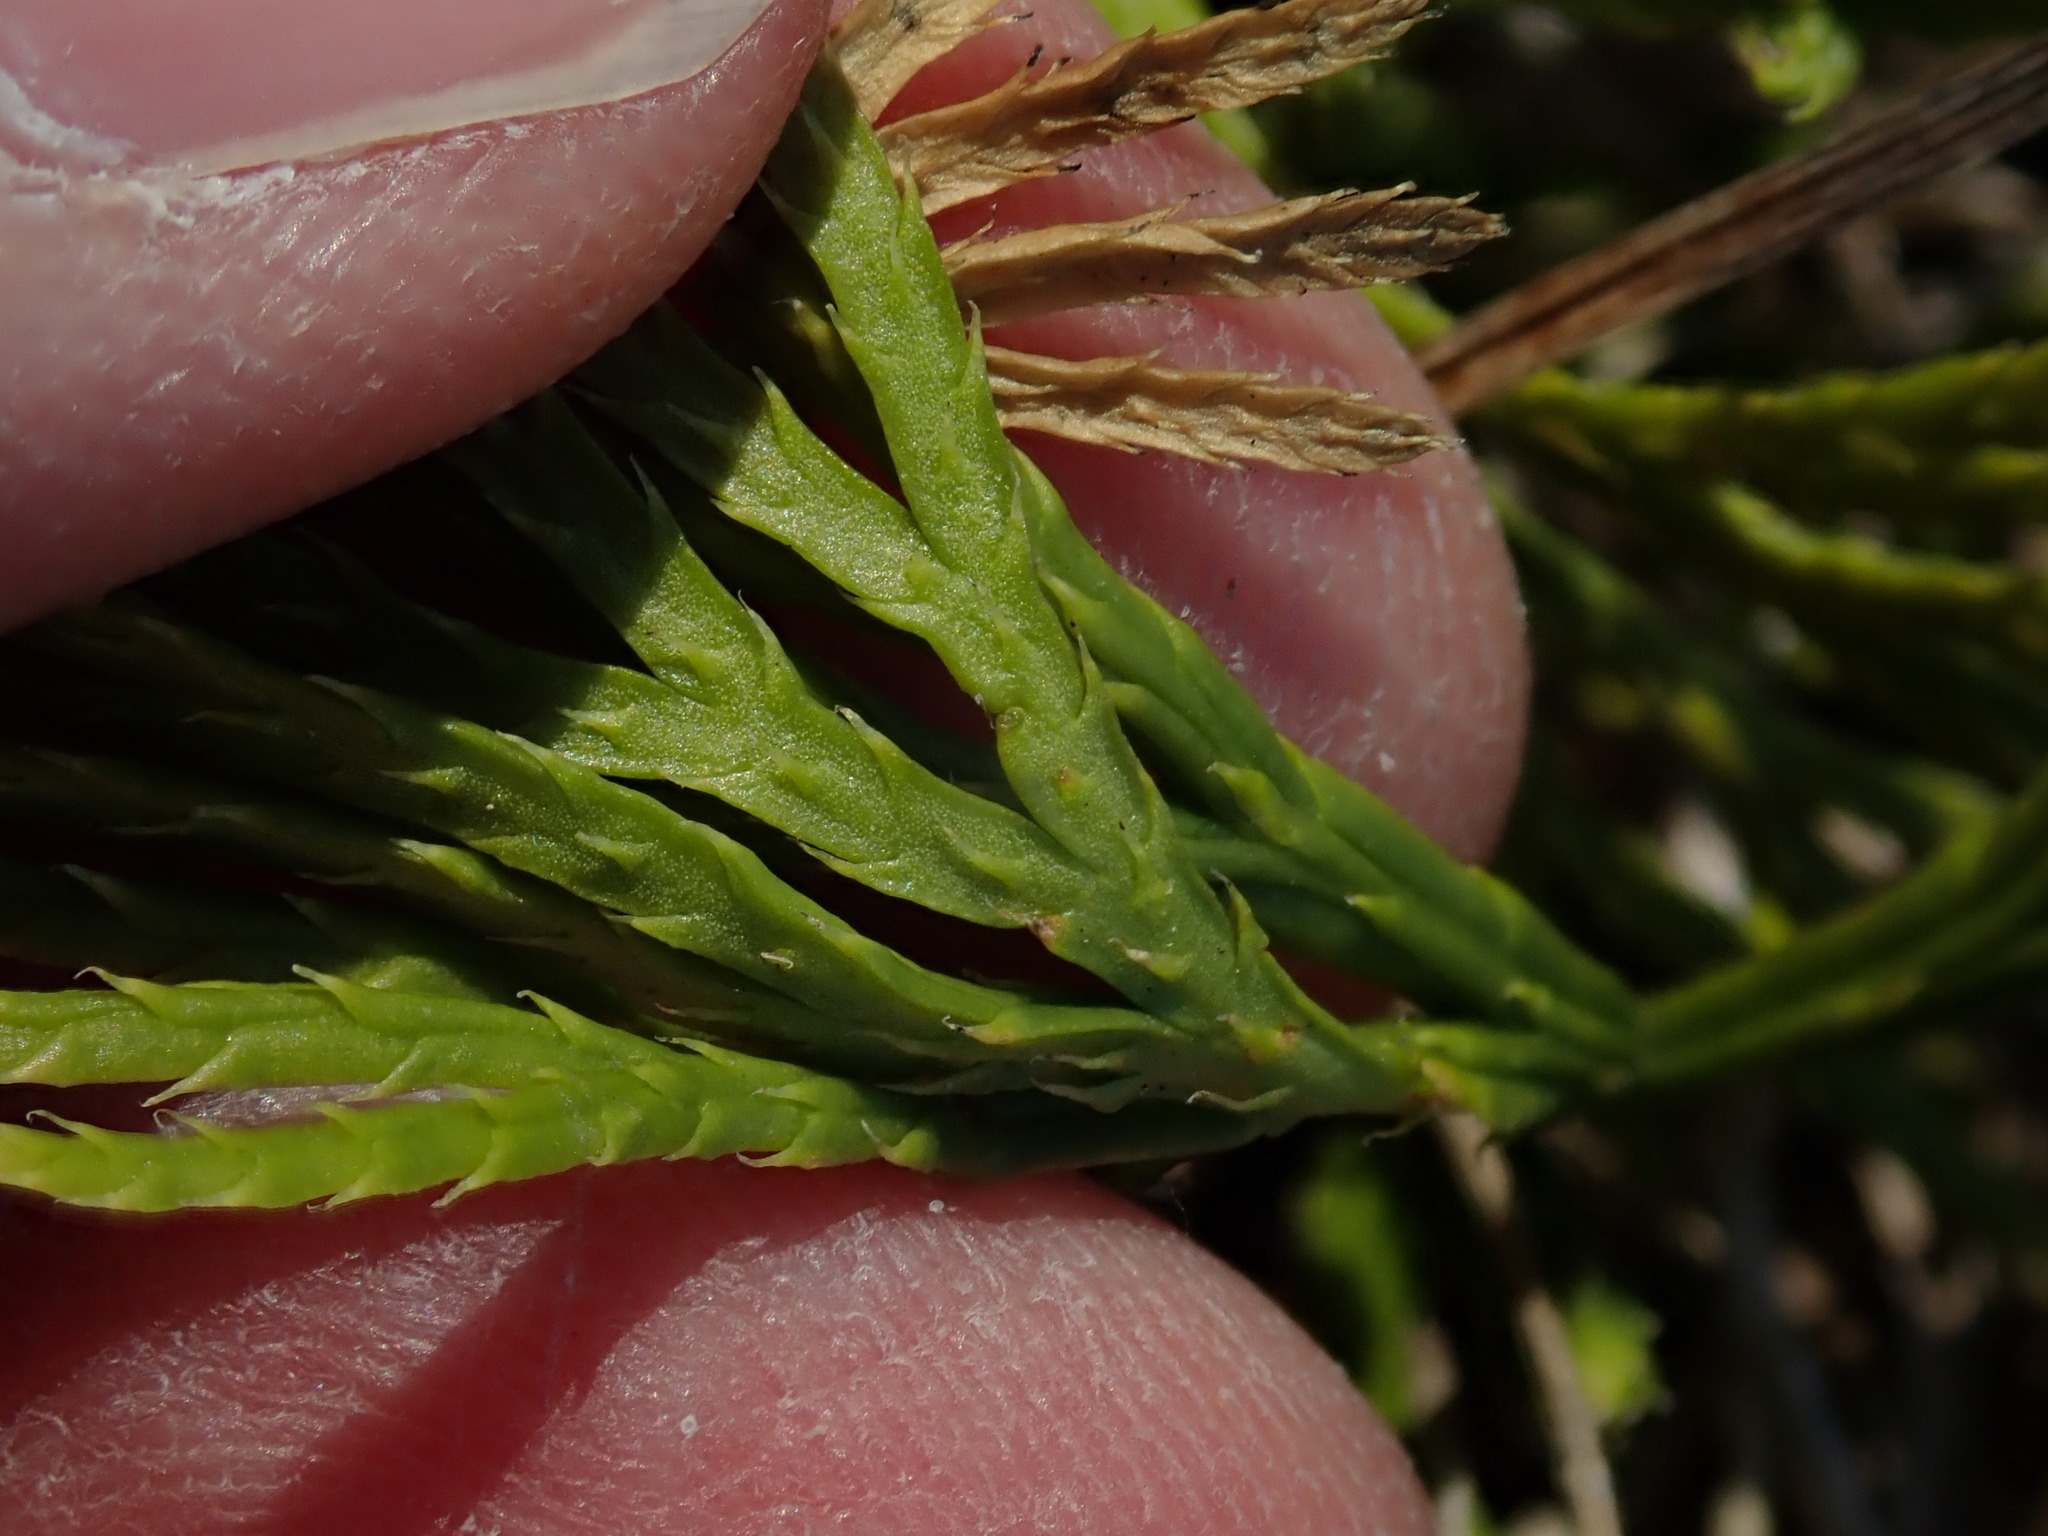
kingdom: Plantae
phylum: Tracheophyta
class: Lycopodiopsida
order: Lycopodiales
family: Lycopodiaceae
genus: Diphasiastrum
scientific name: Diphasiastrum digitatum
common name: Southern running-pine
